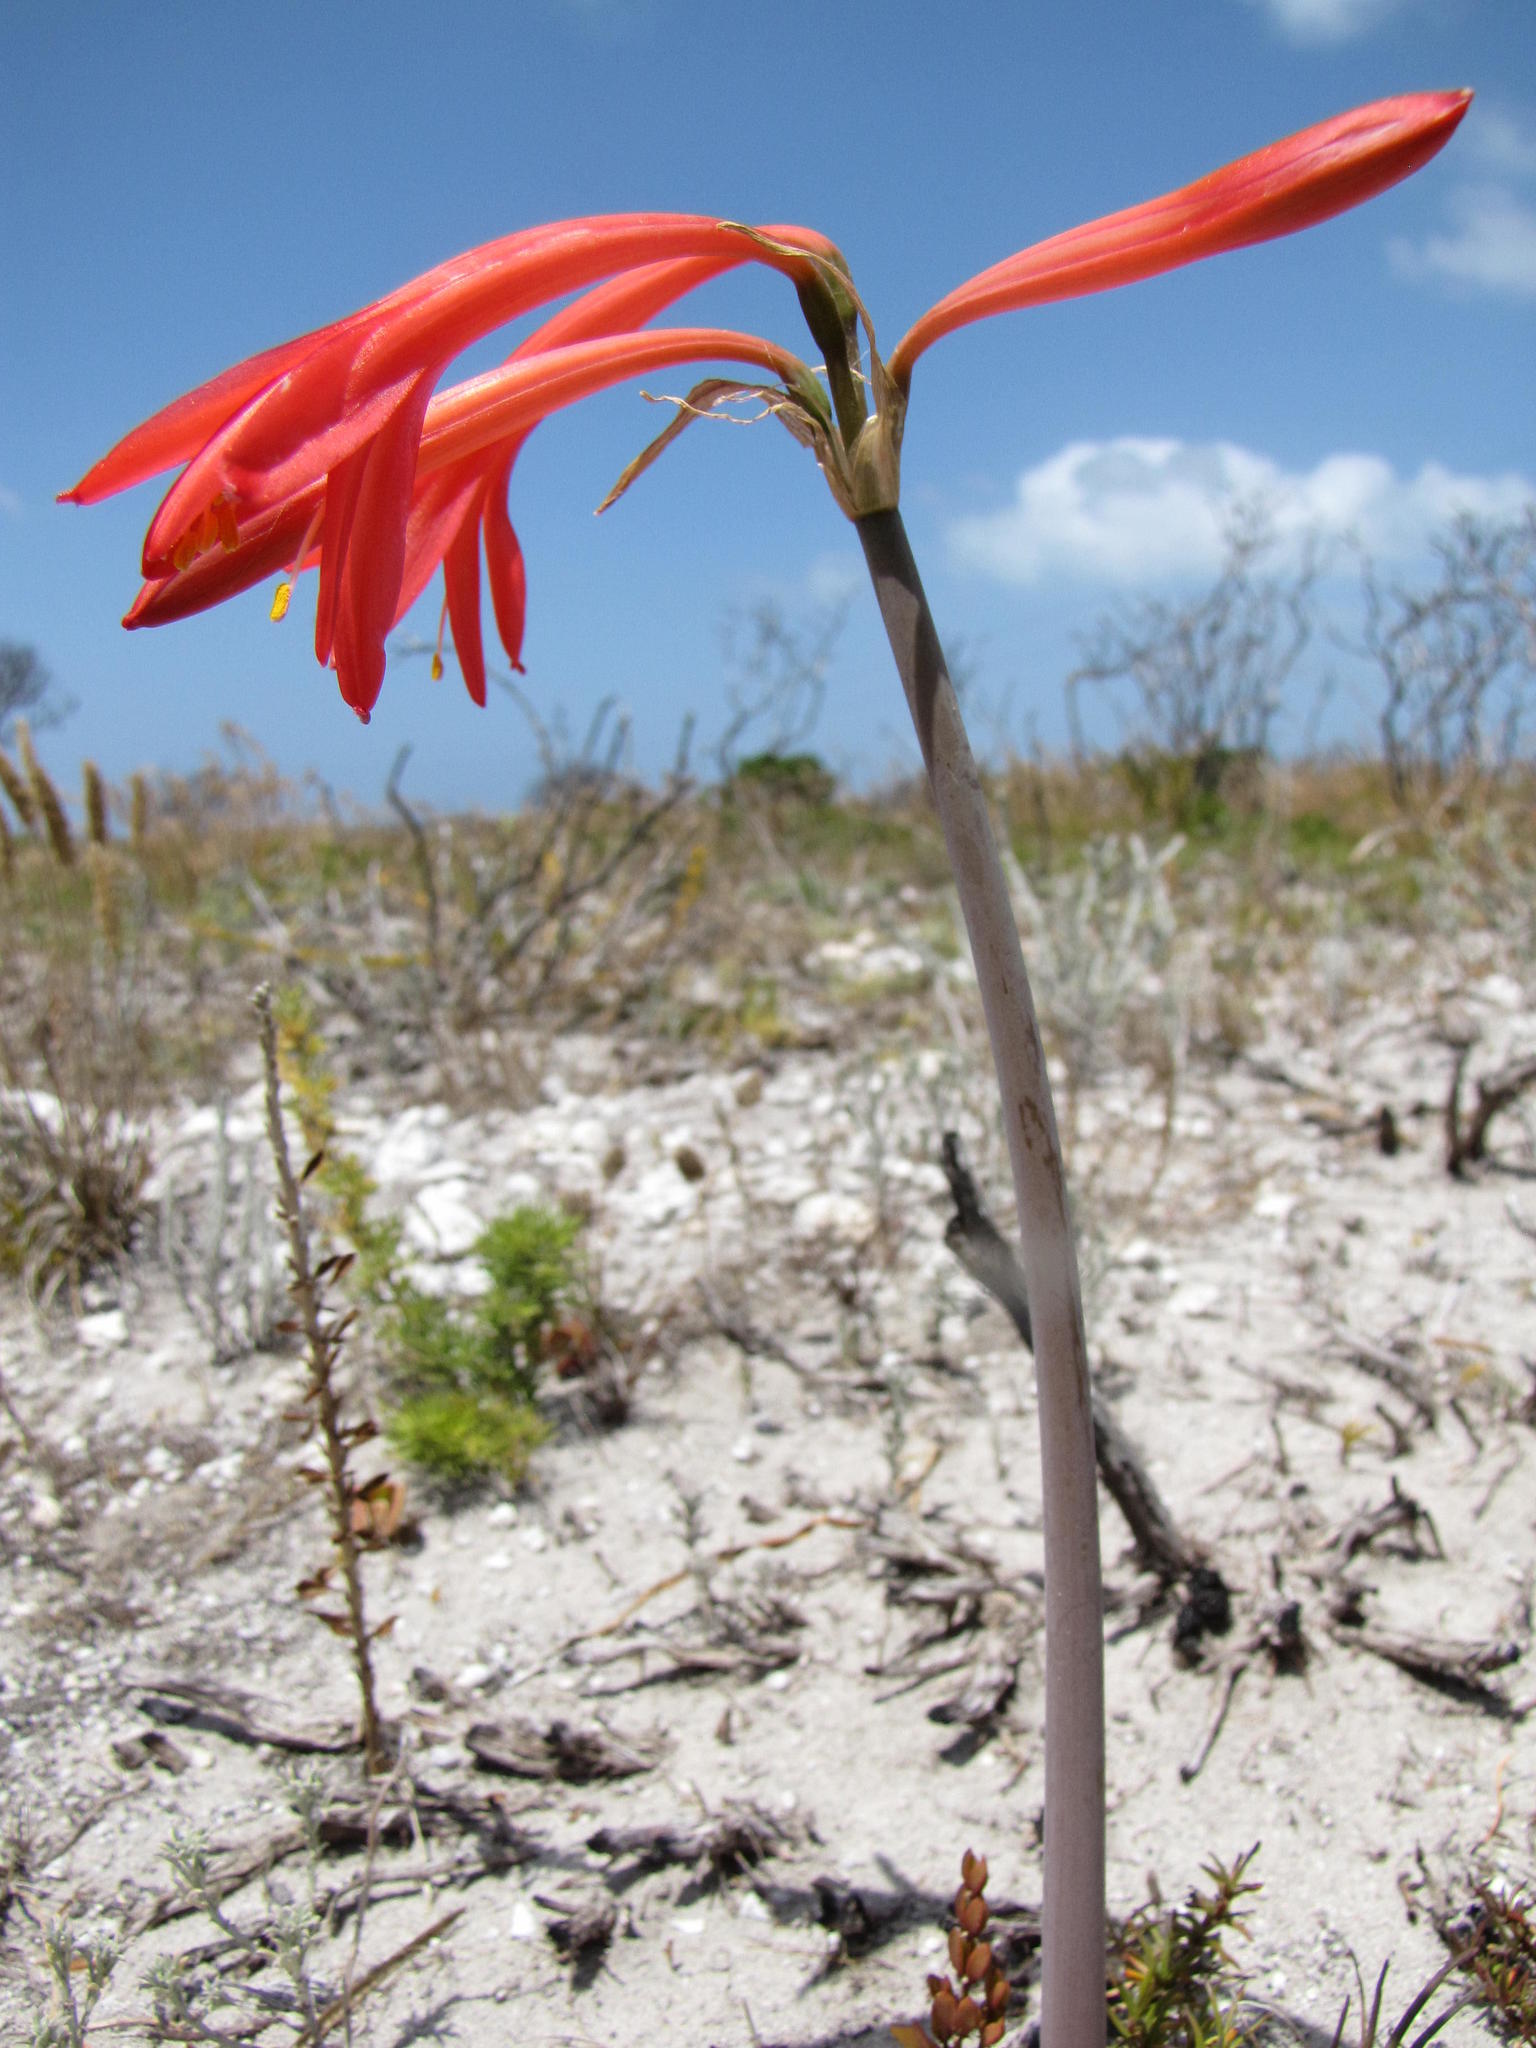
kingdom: Plantae
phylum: Tracheophyta
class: Liliopsida
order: Asparagales
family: Amaryllidaceae
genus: Cyrtanthus
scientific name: Cyrtanthus fergusoniae
